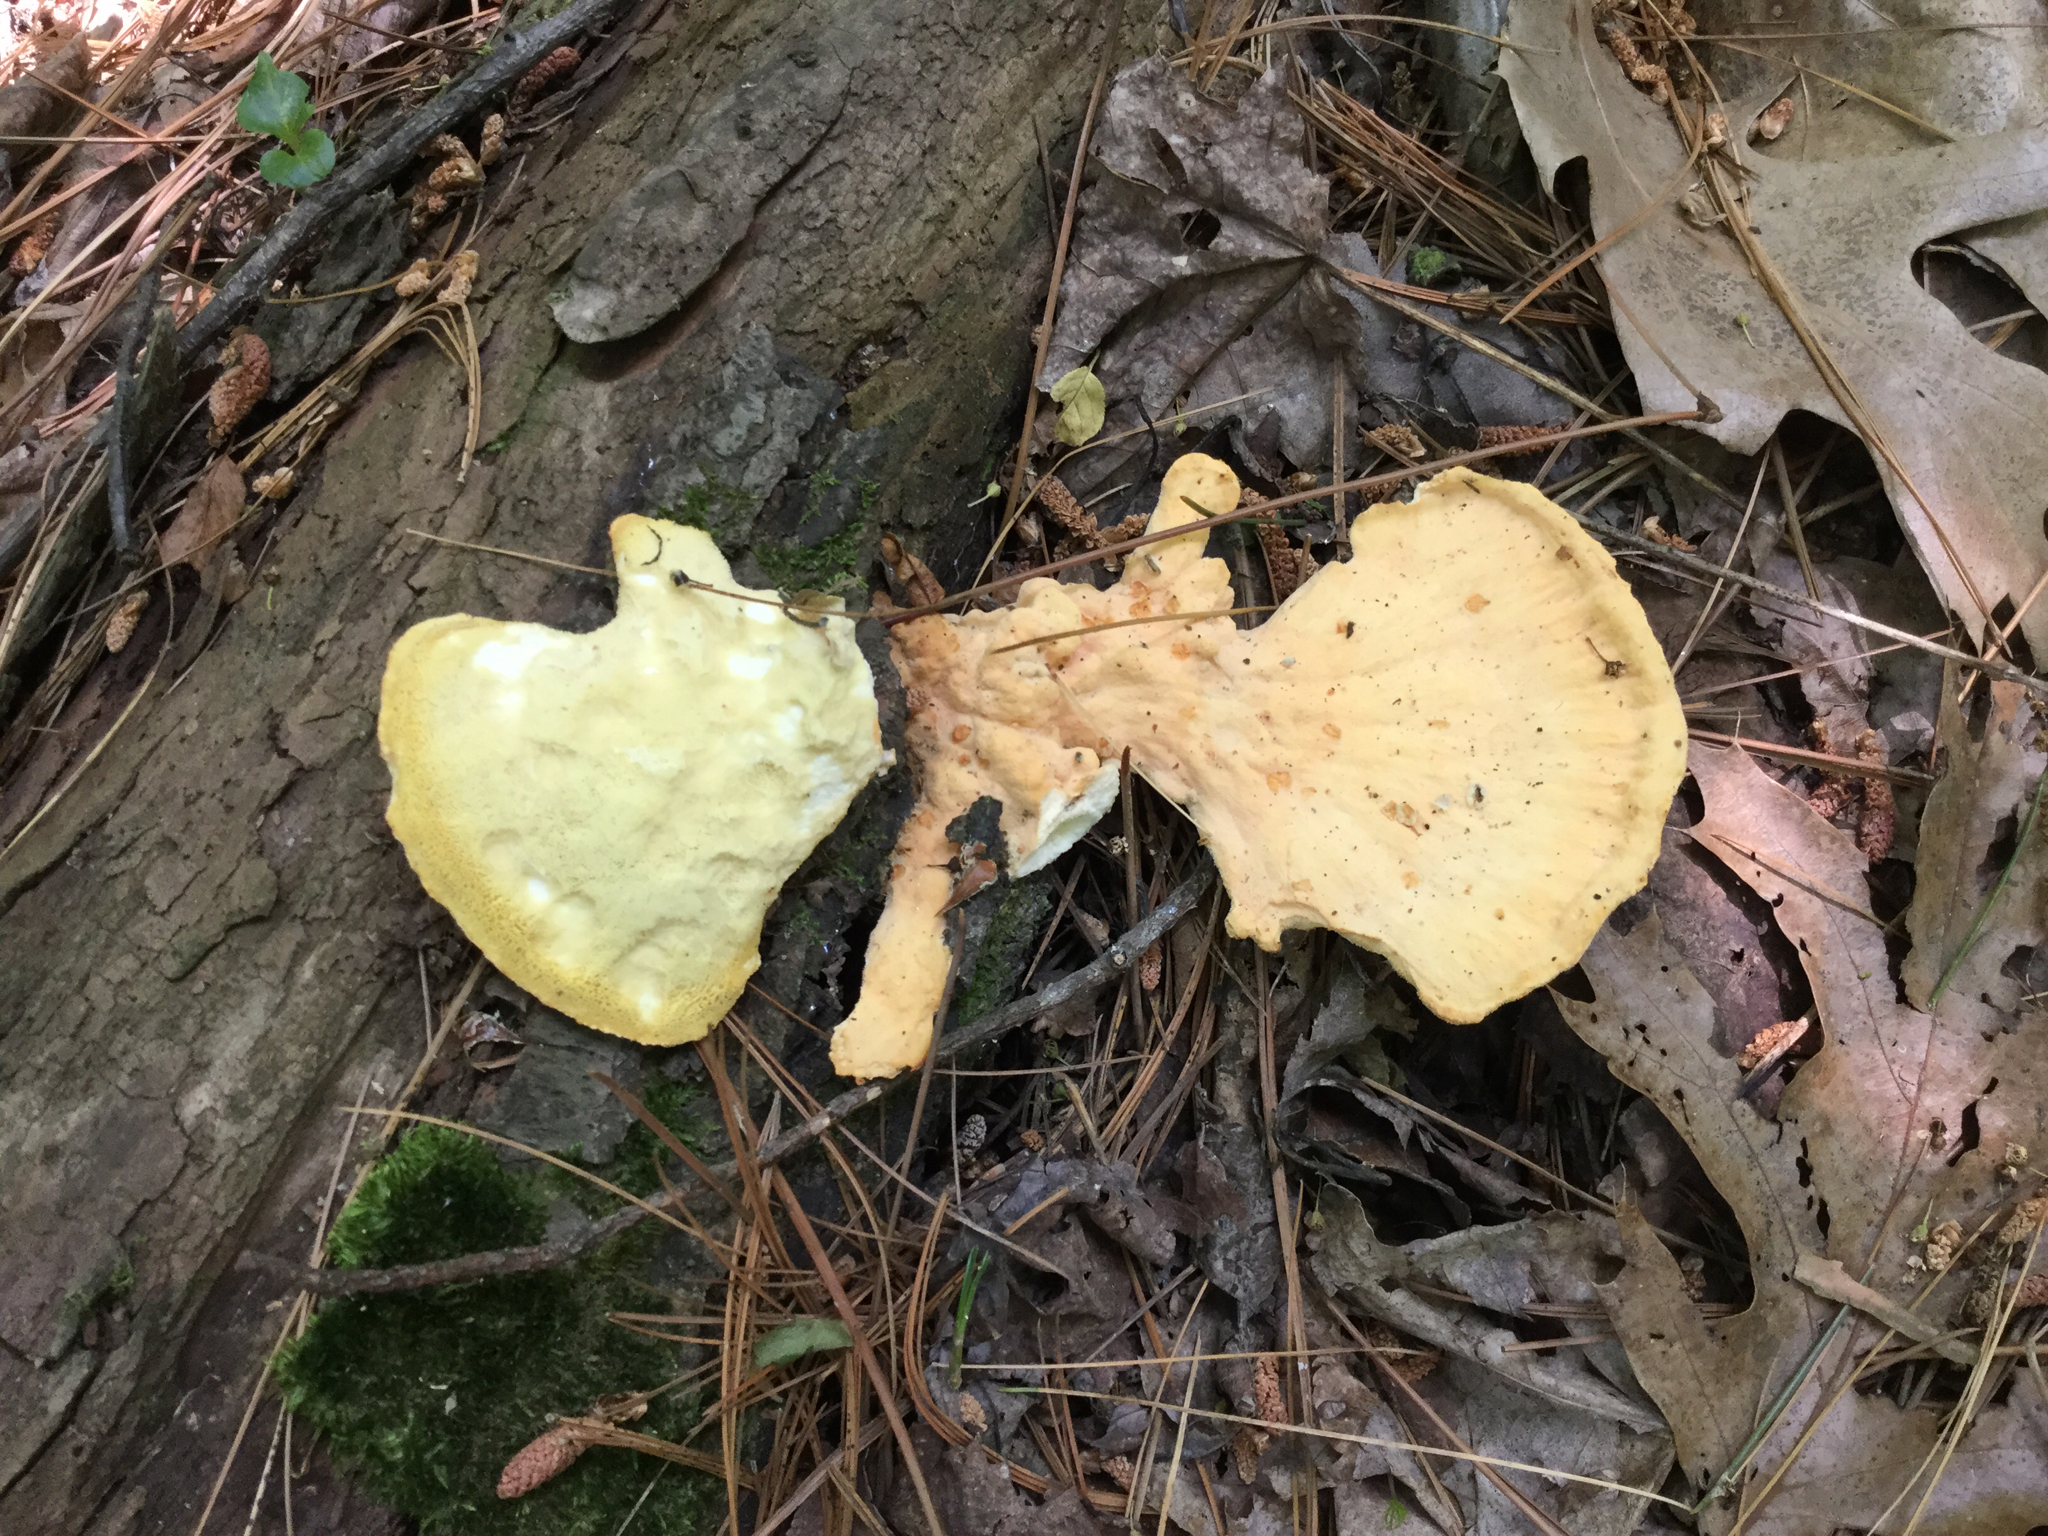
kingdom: Fungi
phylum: Basidiomycota
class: Agaricomycetes
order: Polyporales
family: Laetiporaceae
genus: Laetiporus
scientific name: Laetiporus sulphureus
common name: Chicken of the woods
